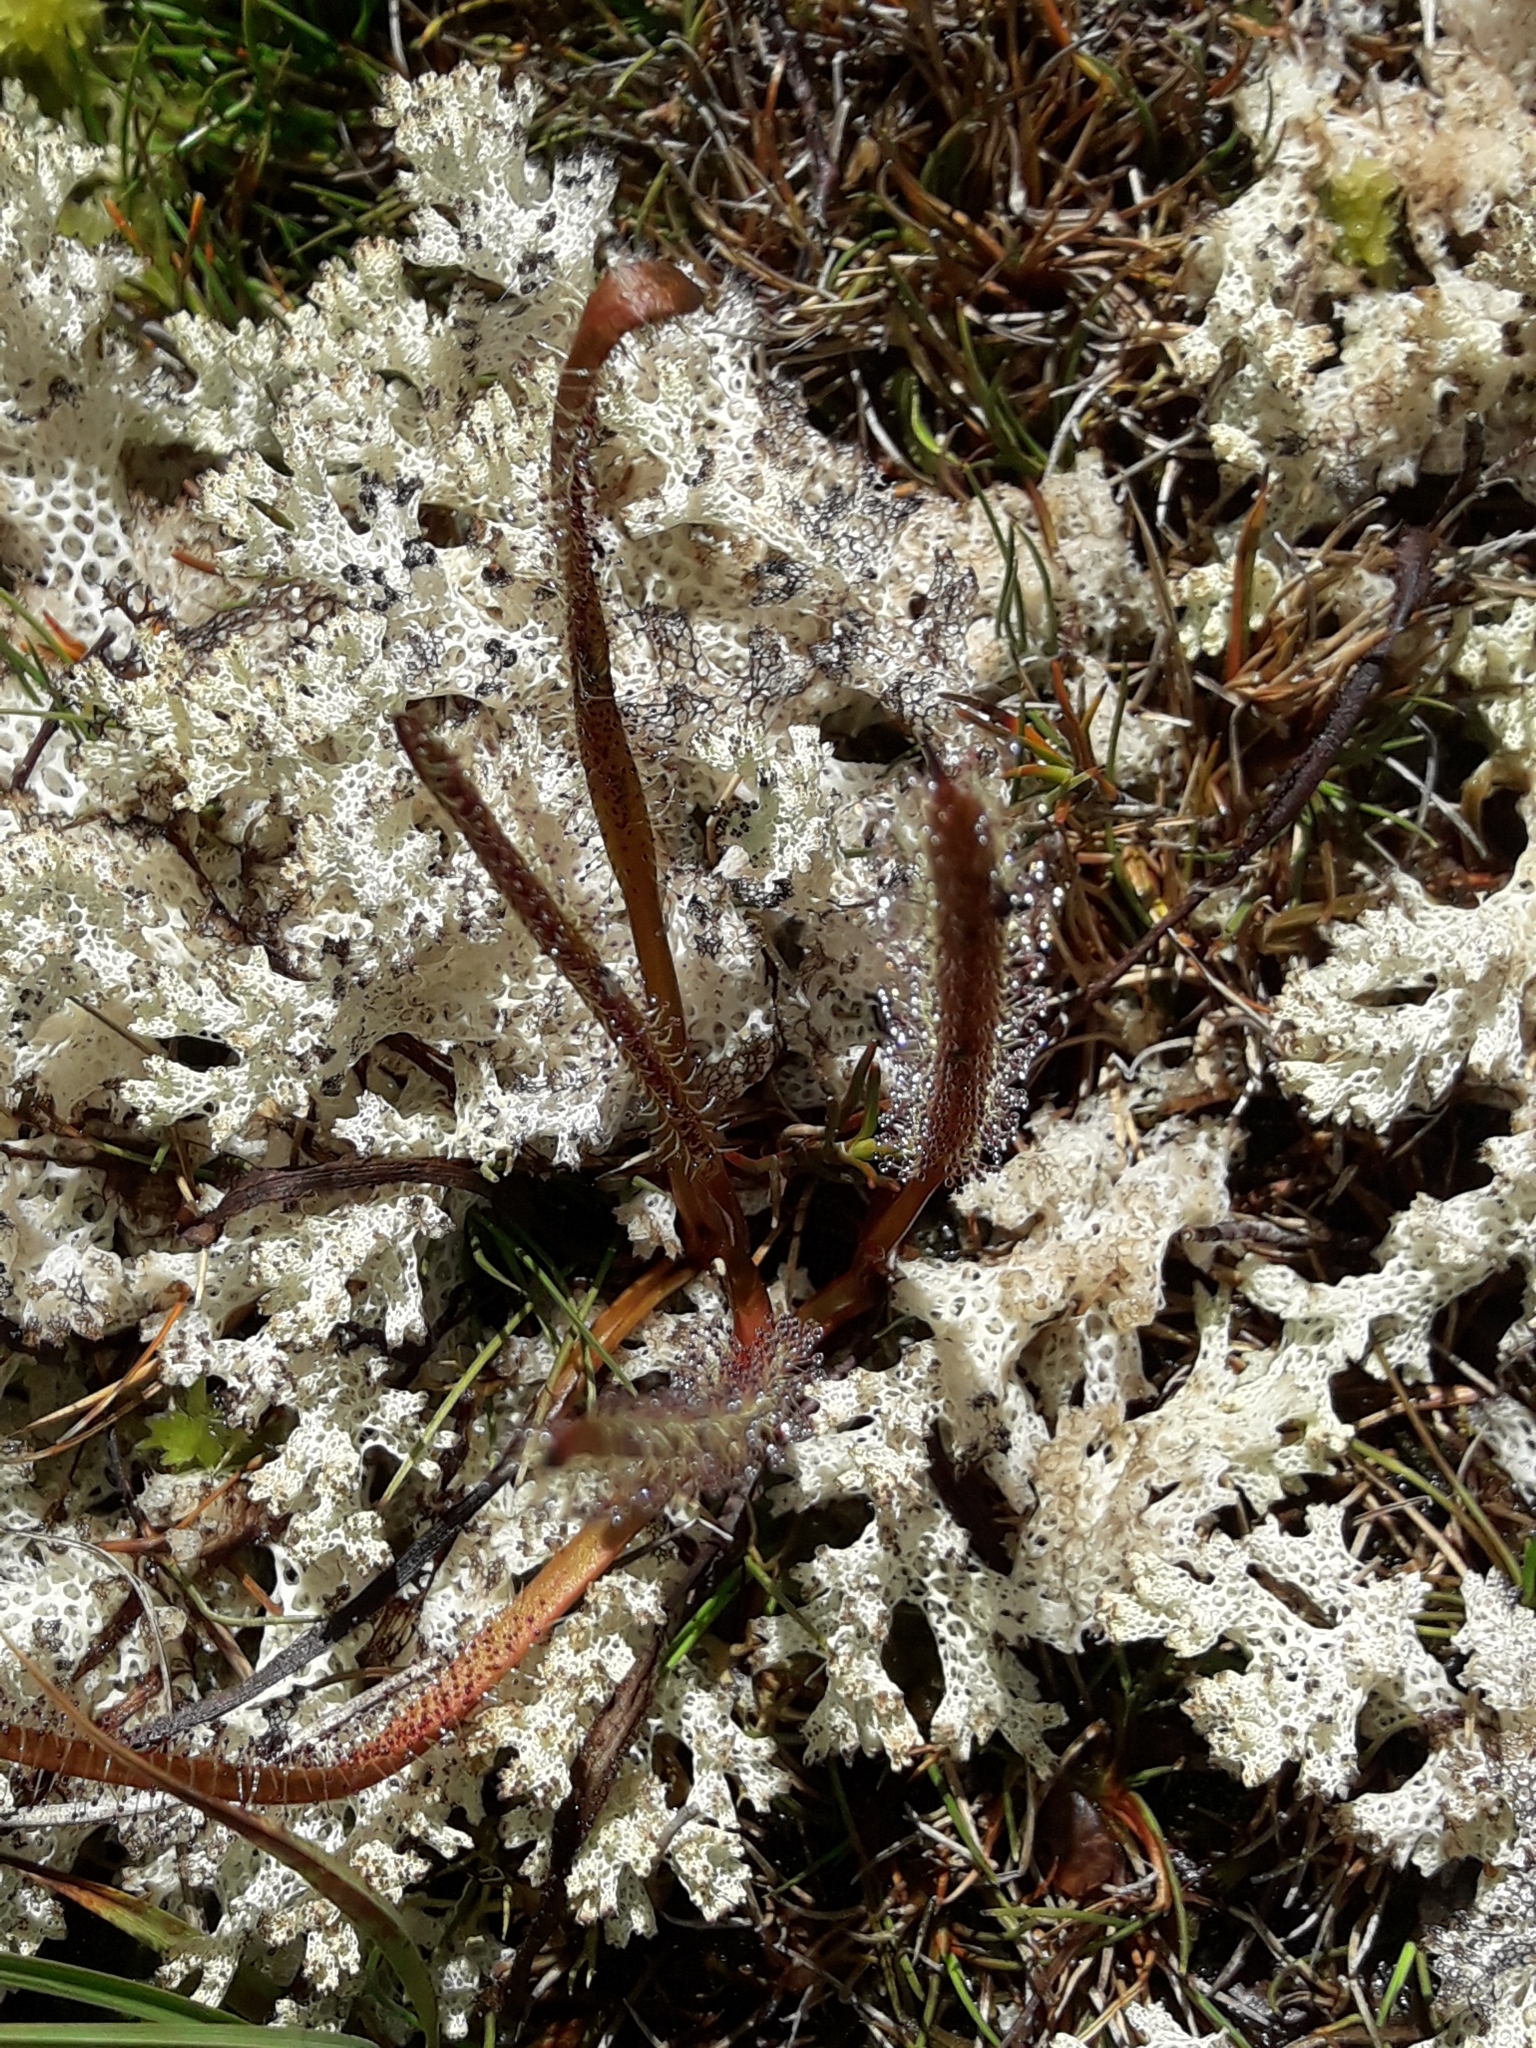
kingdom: Plantae
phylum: Tracheophyta
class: Magnoliopsida
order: Caryophyllales
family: Droseraceae
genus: Drosera
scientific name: Drosera arcturi
